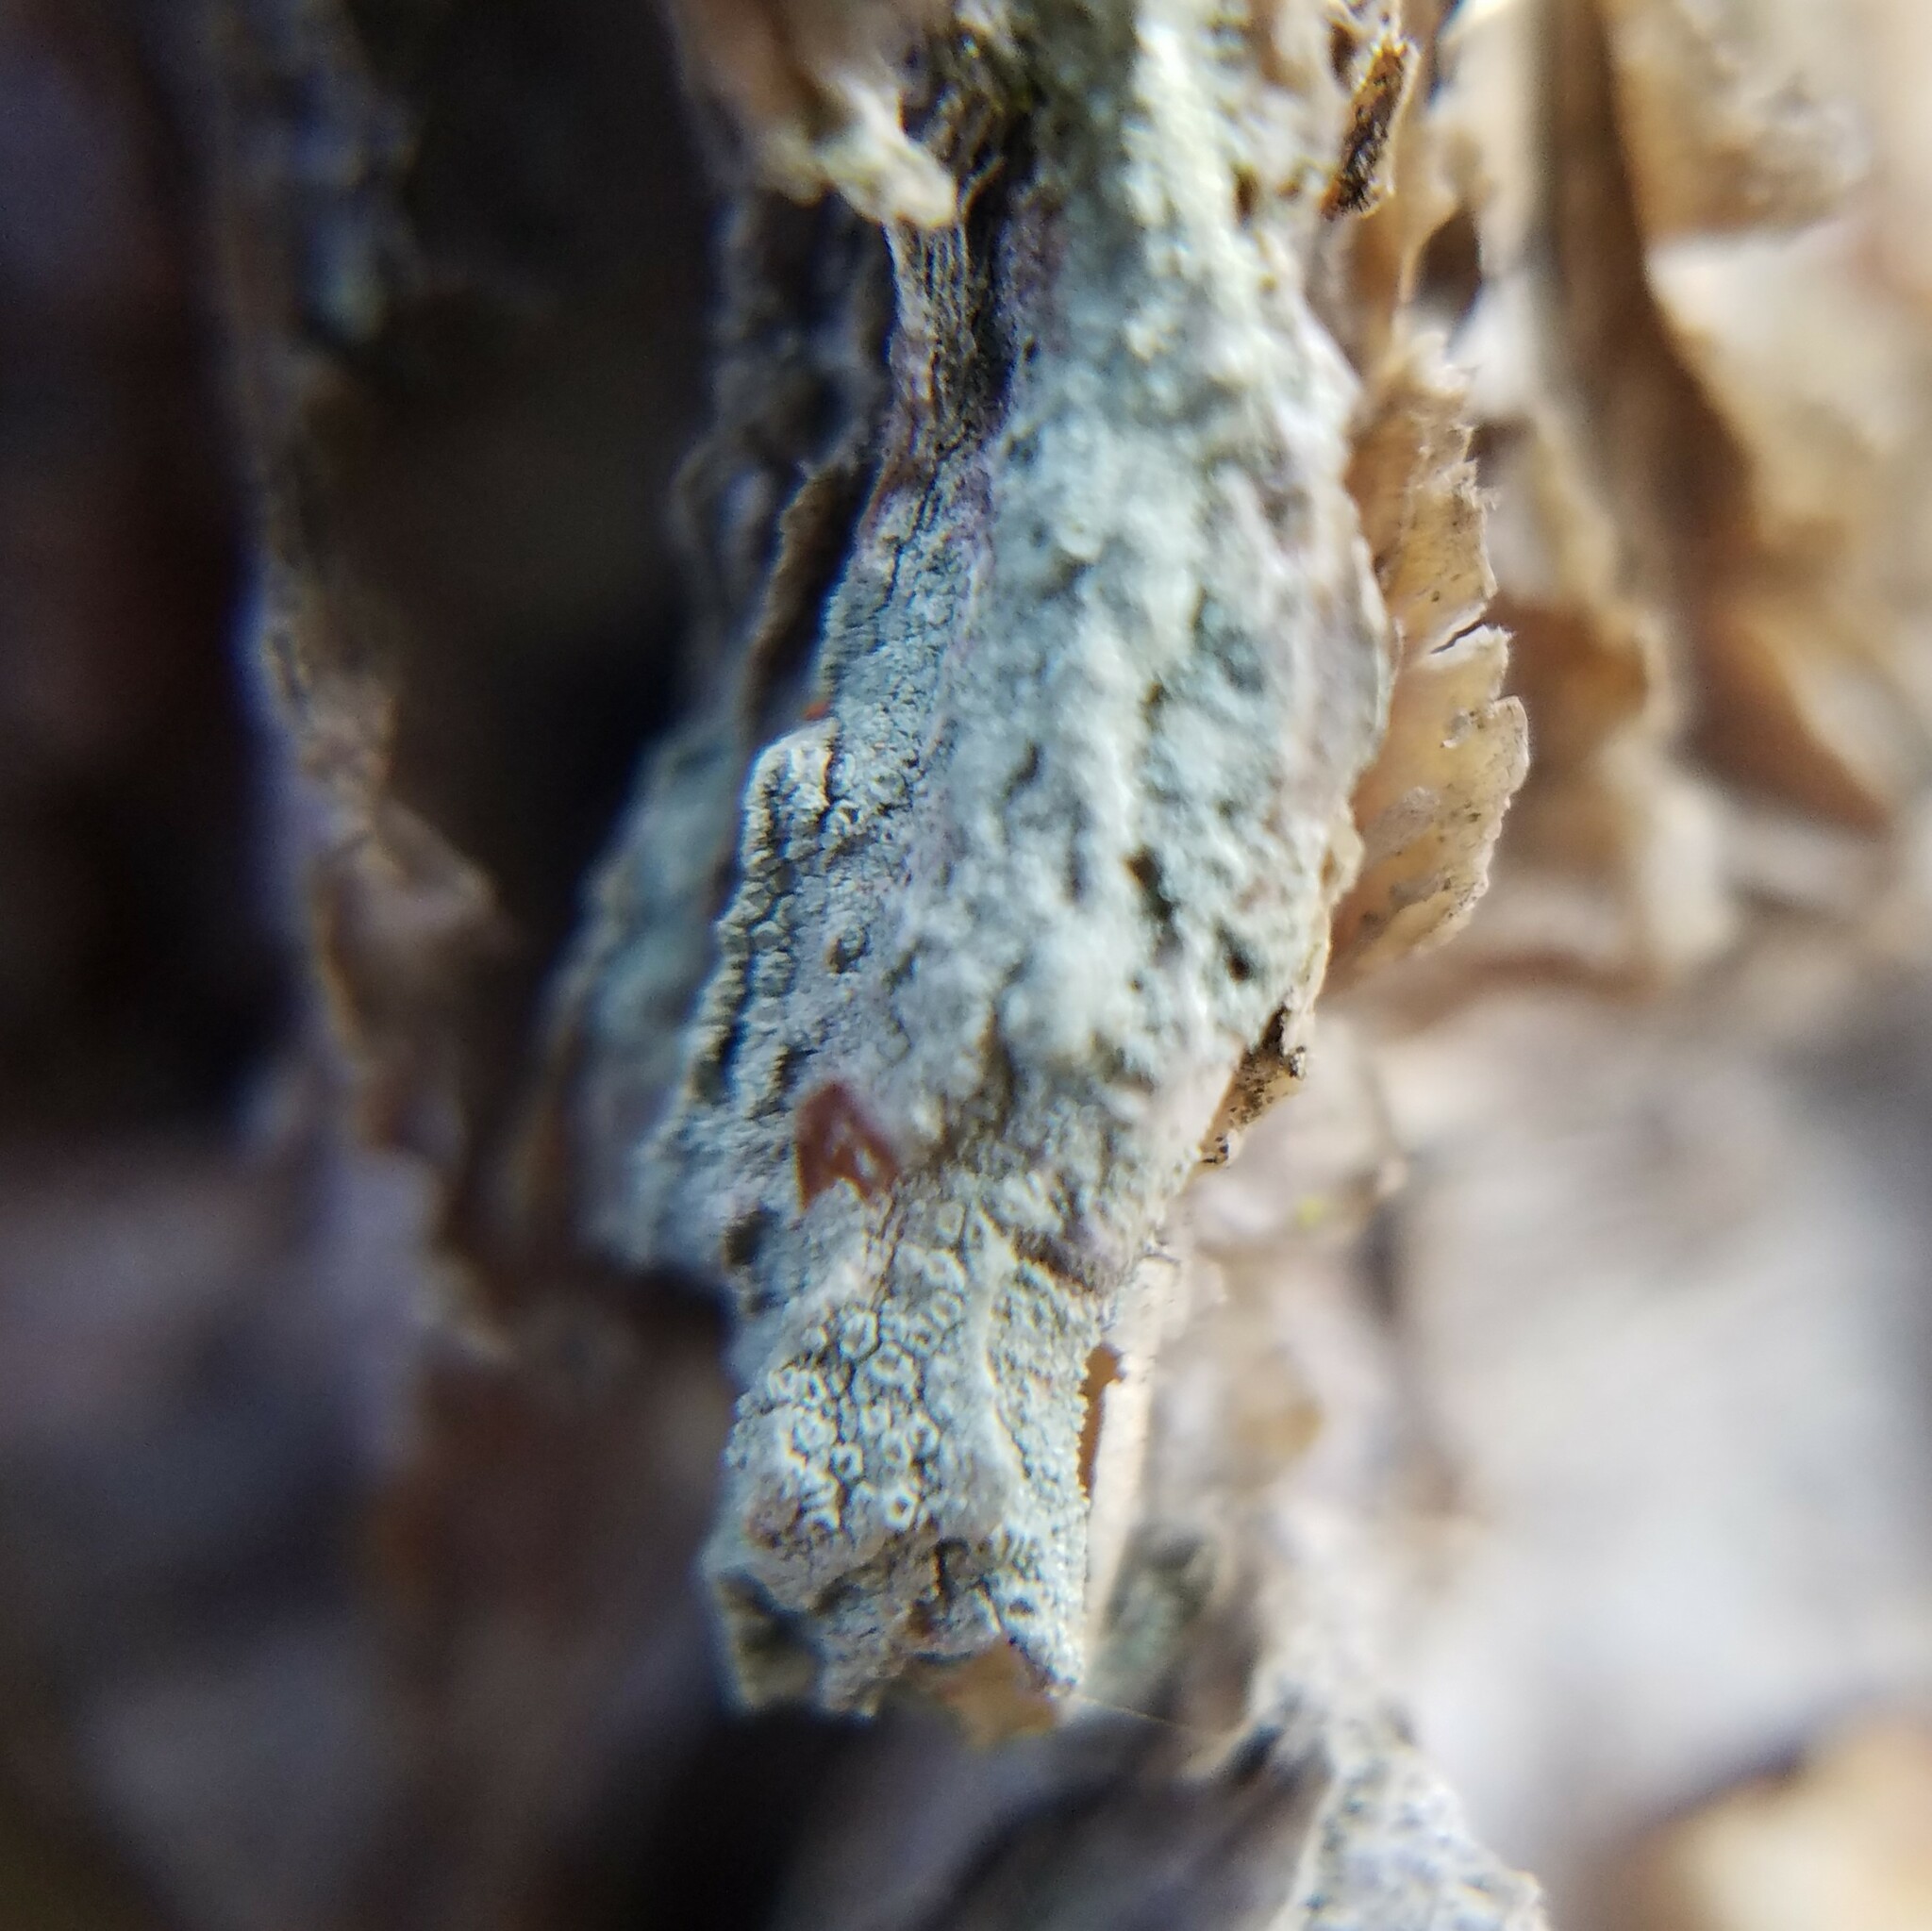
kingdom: Fungi
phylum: Ascomycota
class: Lecanoromycetes
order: Lecanorales
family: Lecanoraceae
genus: Lecanora
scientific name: Lecanora strobilina
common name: Mealy rim-lichen
